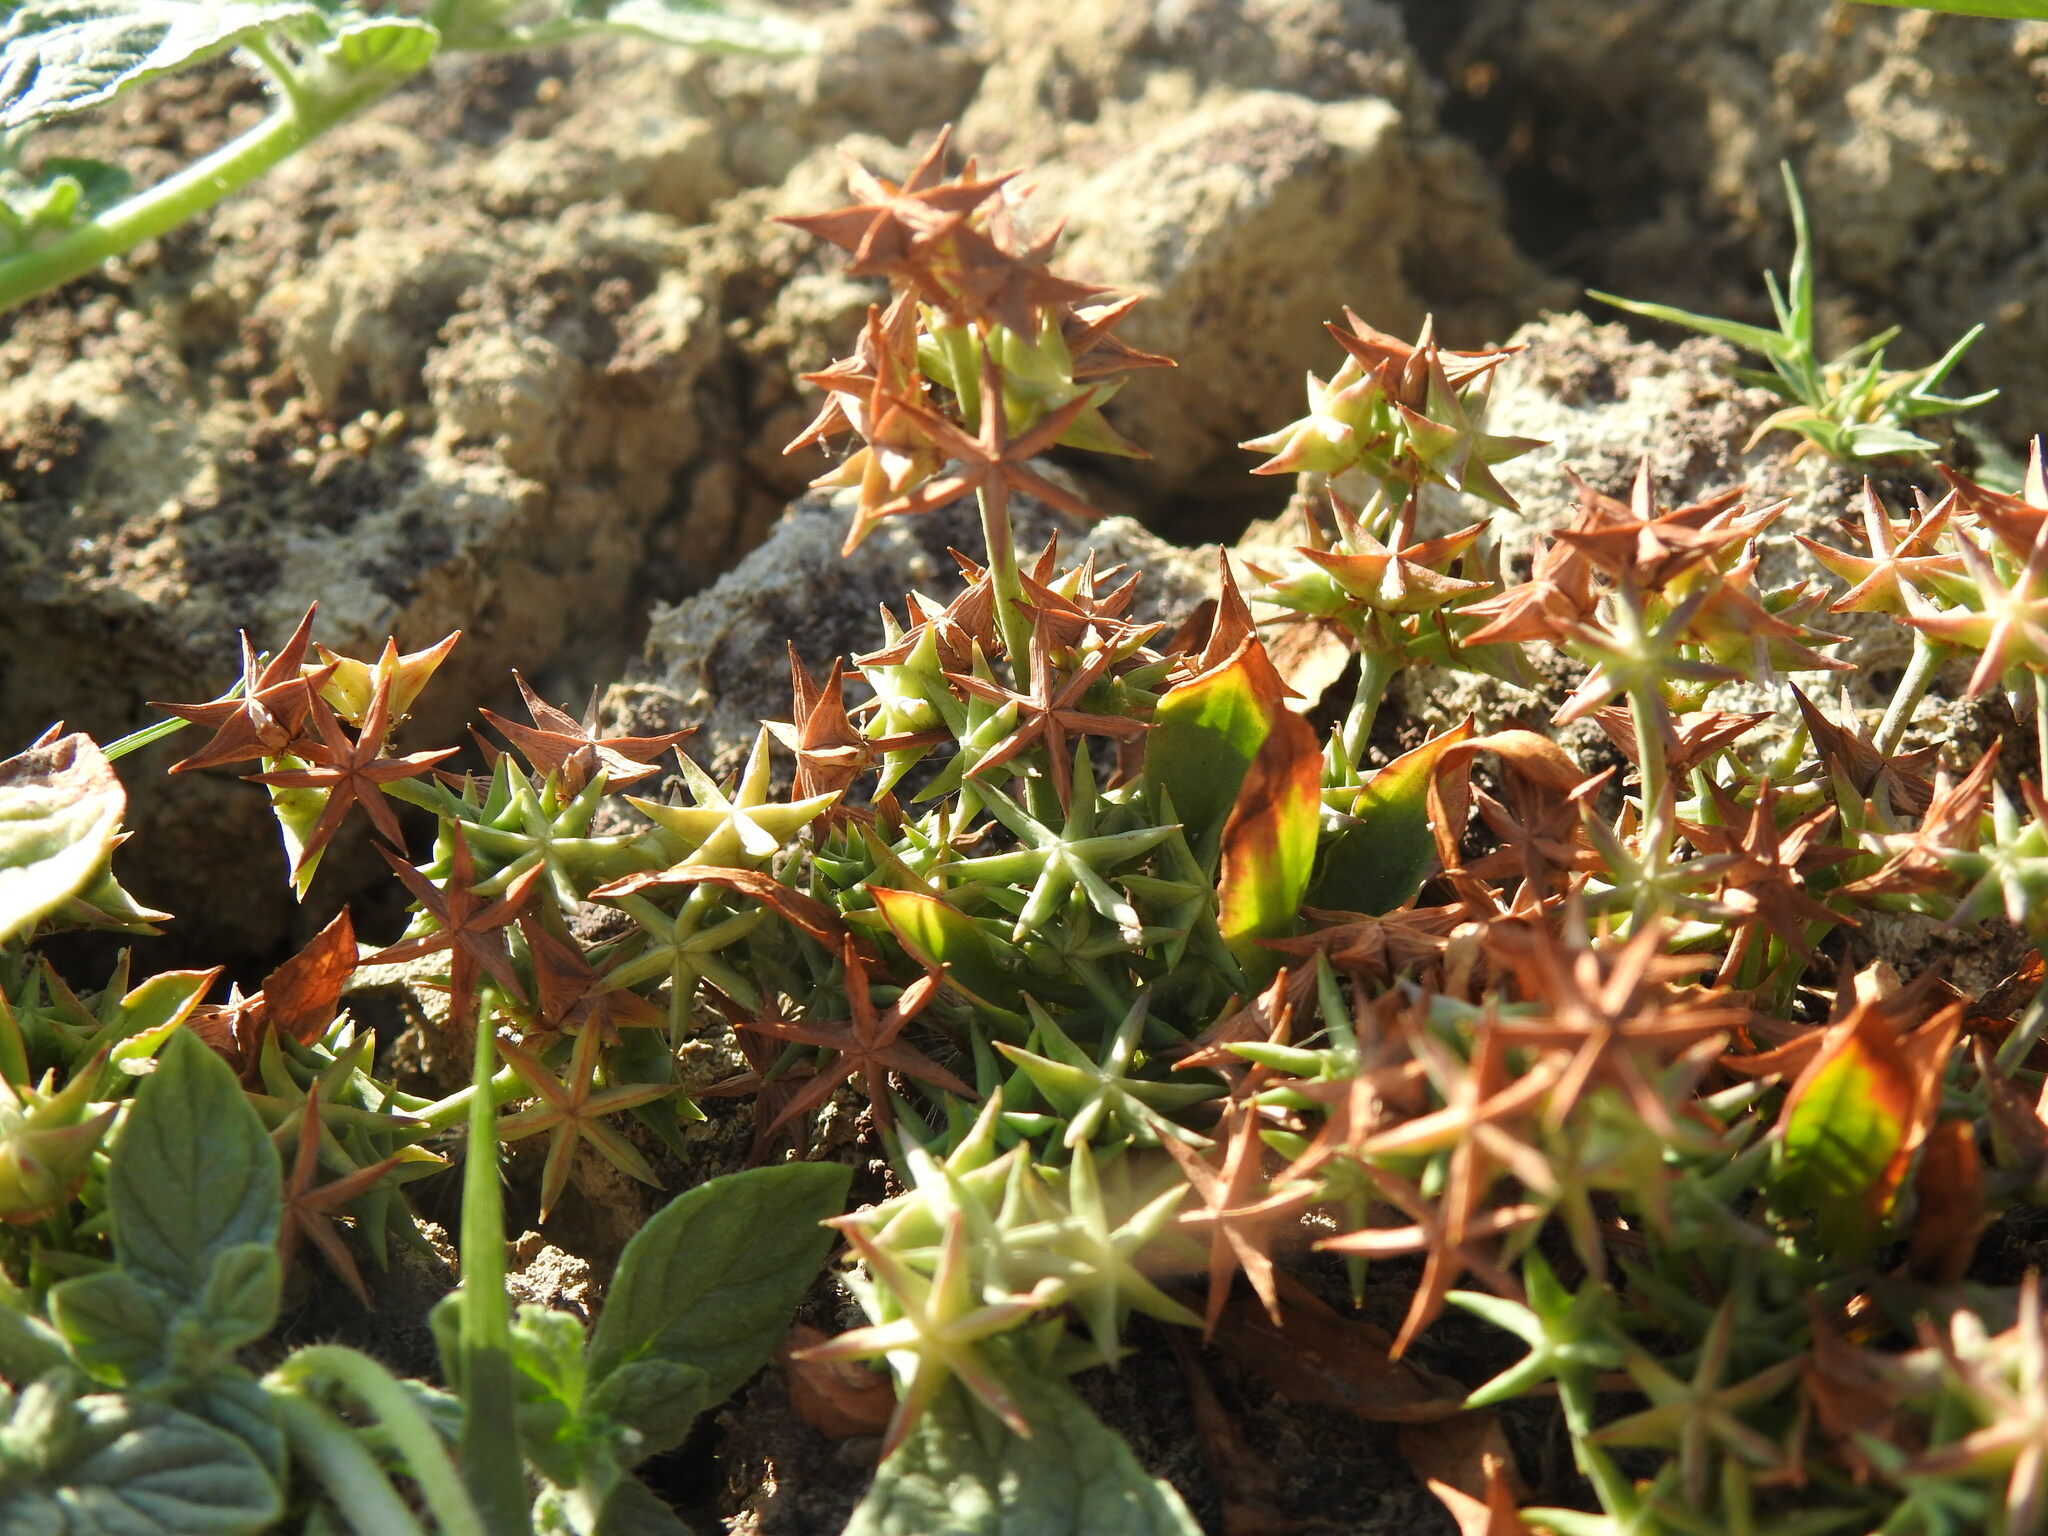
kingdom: Plantae
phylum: Tracheophyta
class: Liliopsida
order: Alismatales
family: Alismataceae
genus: Damasonium
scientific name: Damasonium bourgaei
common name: Starfruit
